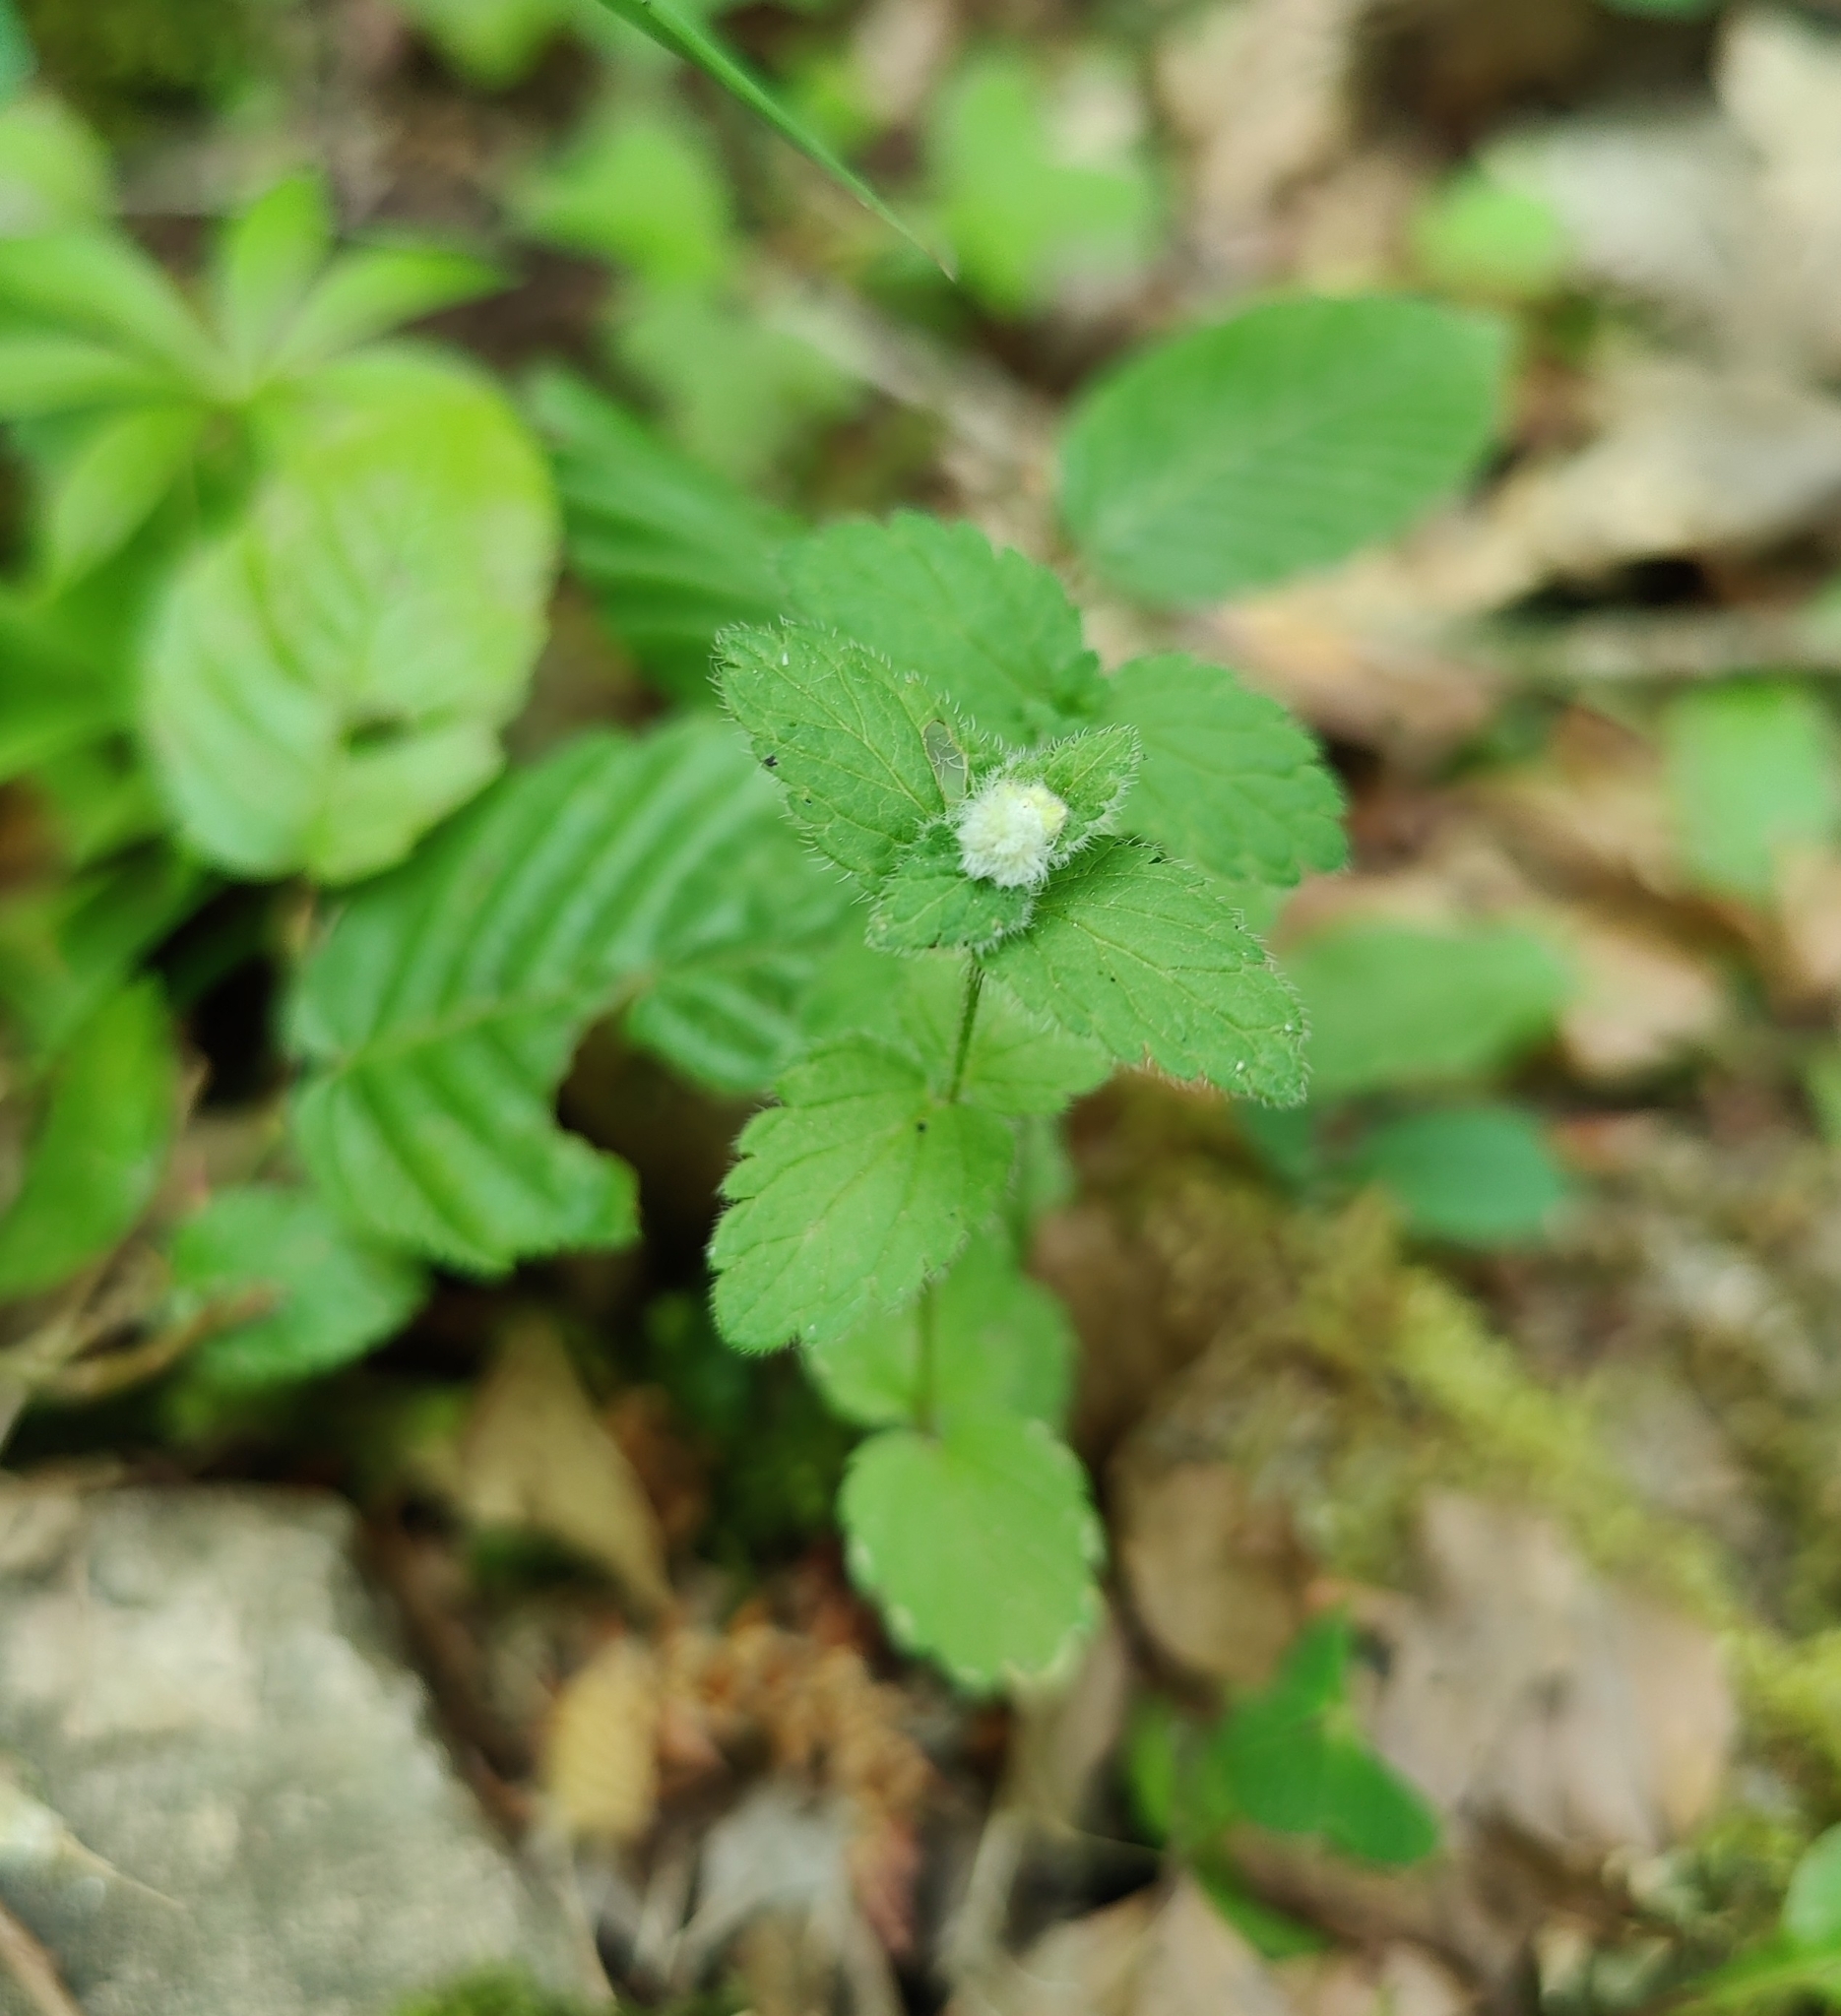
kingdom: Animalia
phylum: Arthropoda
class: Insecta
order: Diptera
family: Cecidomyiidae
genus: Jaapiella
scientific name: Jaapiella veronicae
